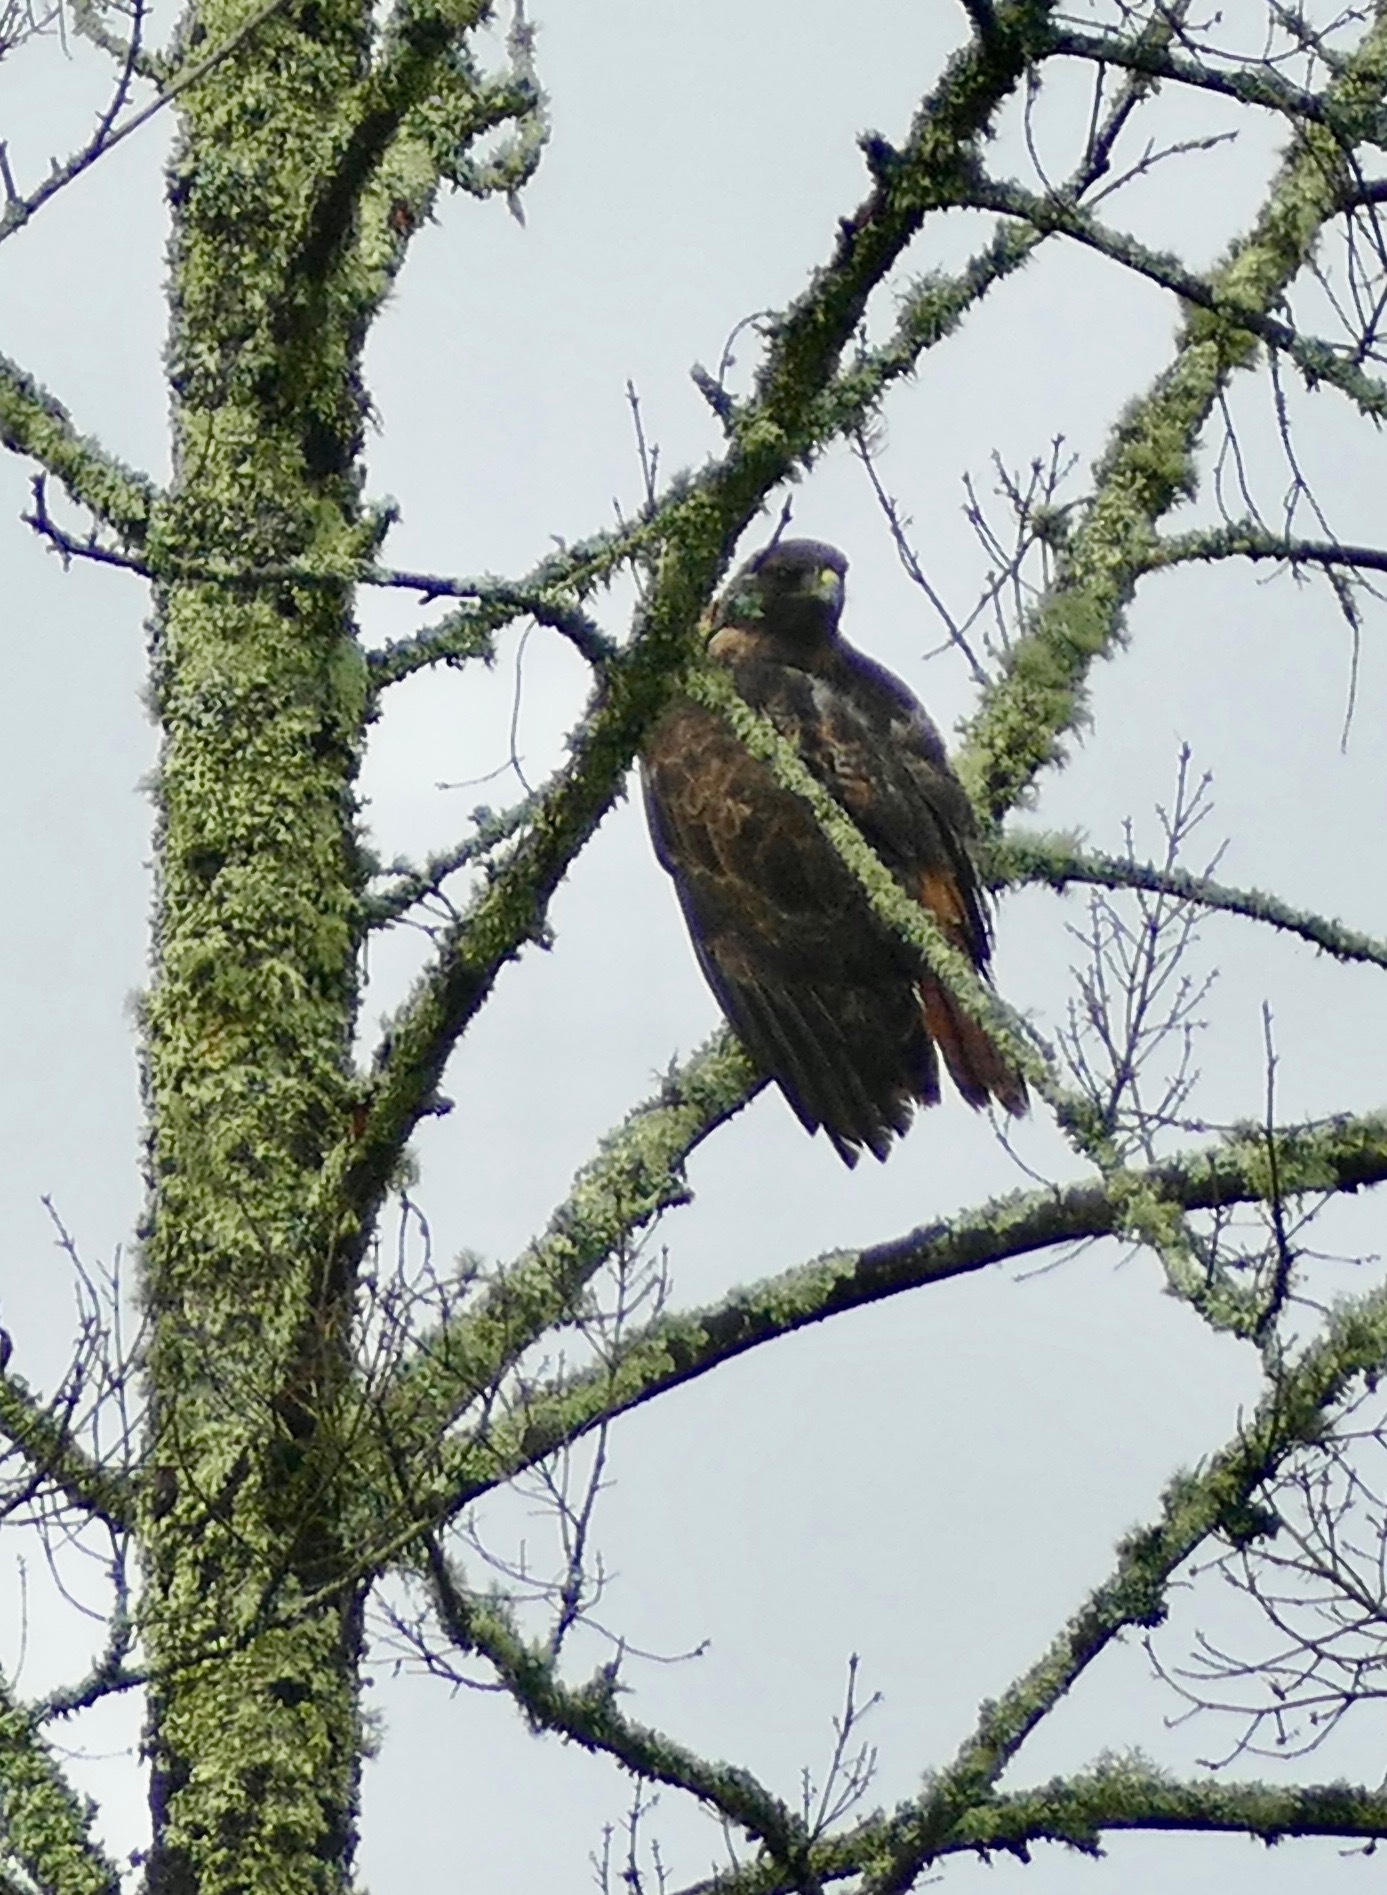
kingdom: Animalia
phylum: Chordata
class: Aves
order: Accipitriformes
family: Accipitridae
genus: Buteo
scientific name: Buteo jamaicensis
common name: Red-tailed hawk
